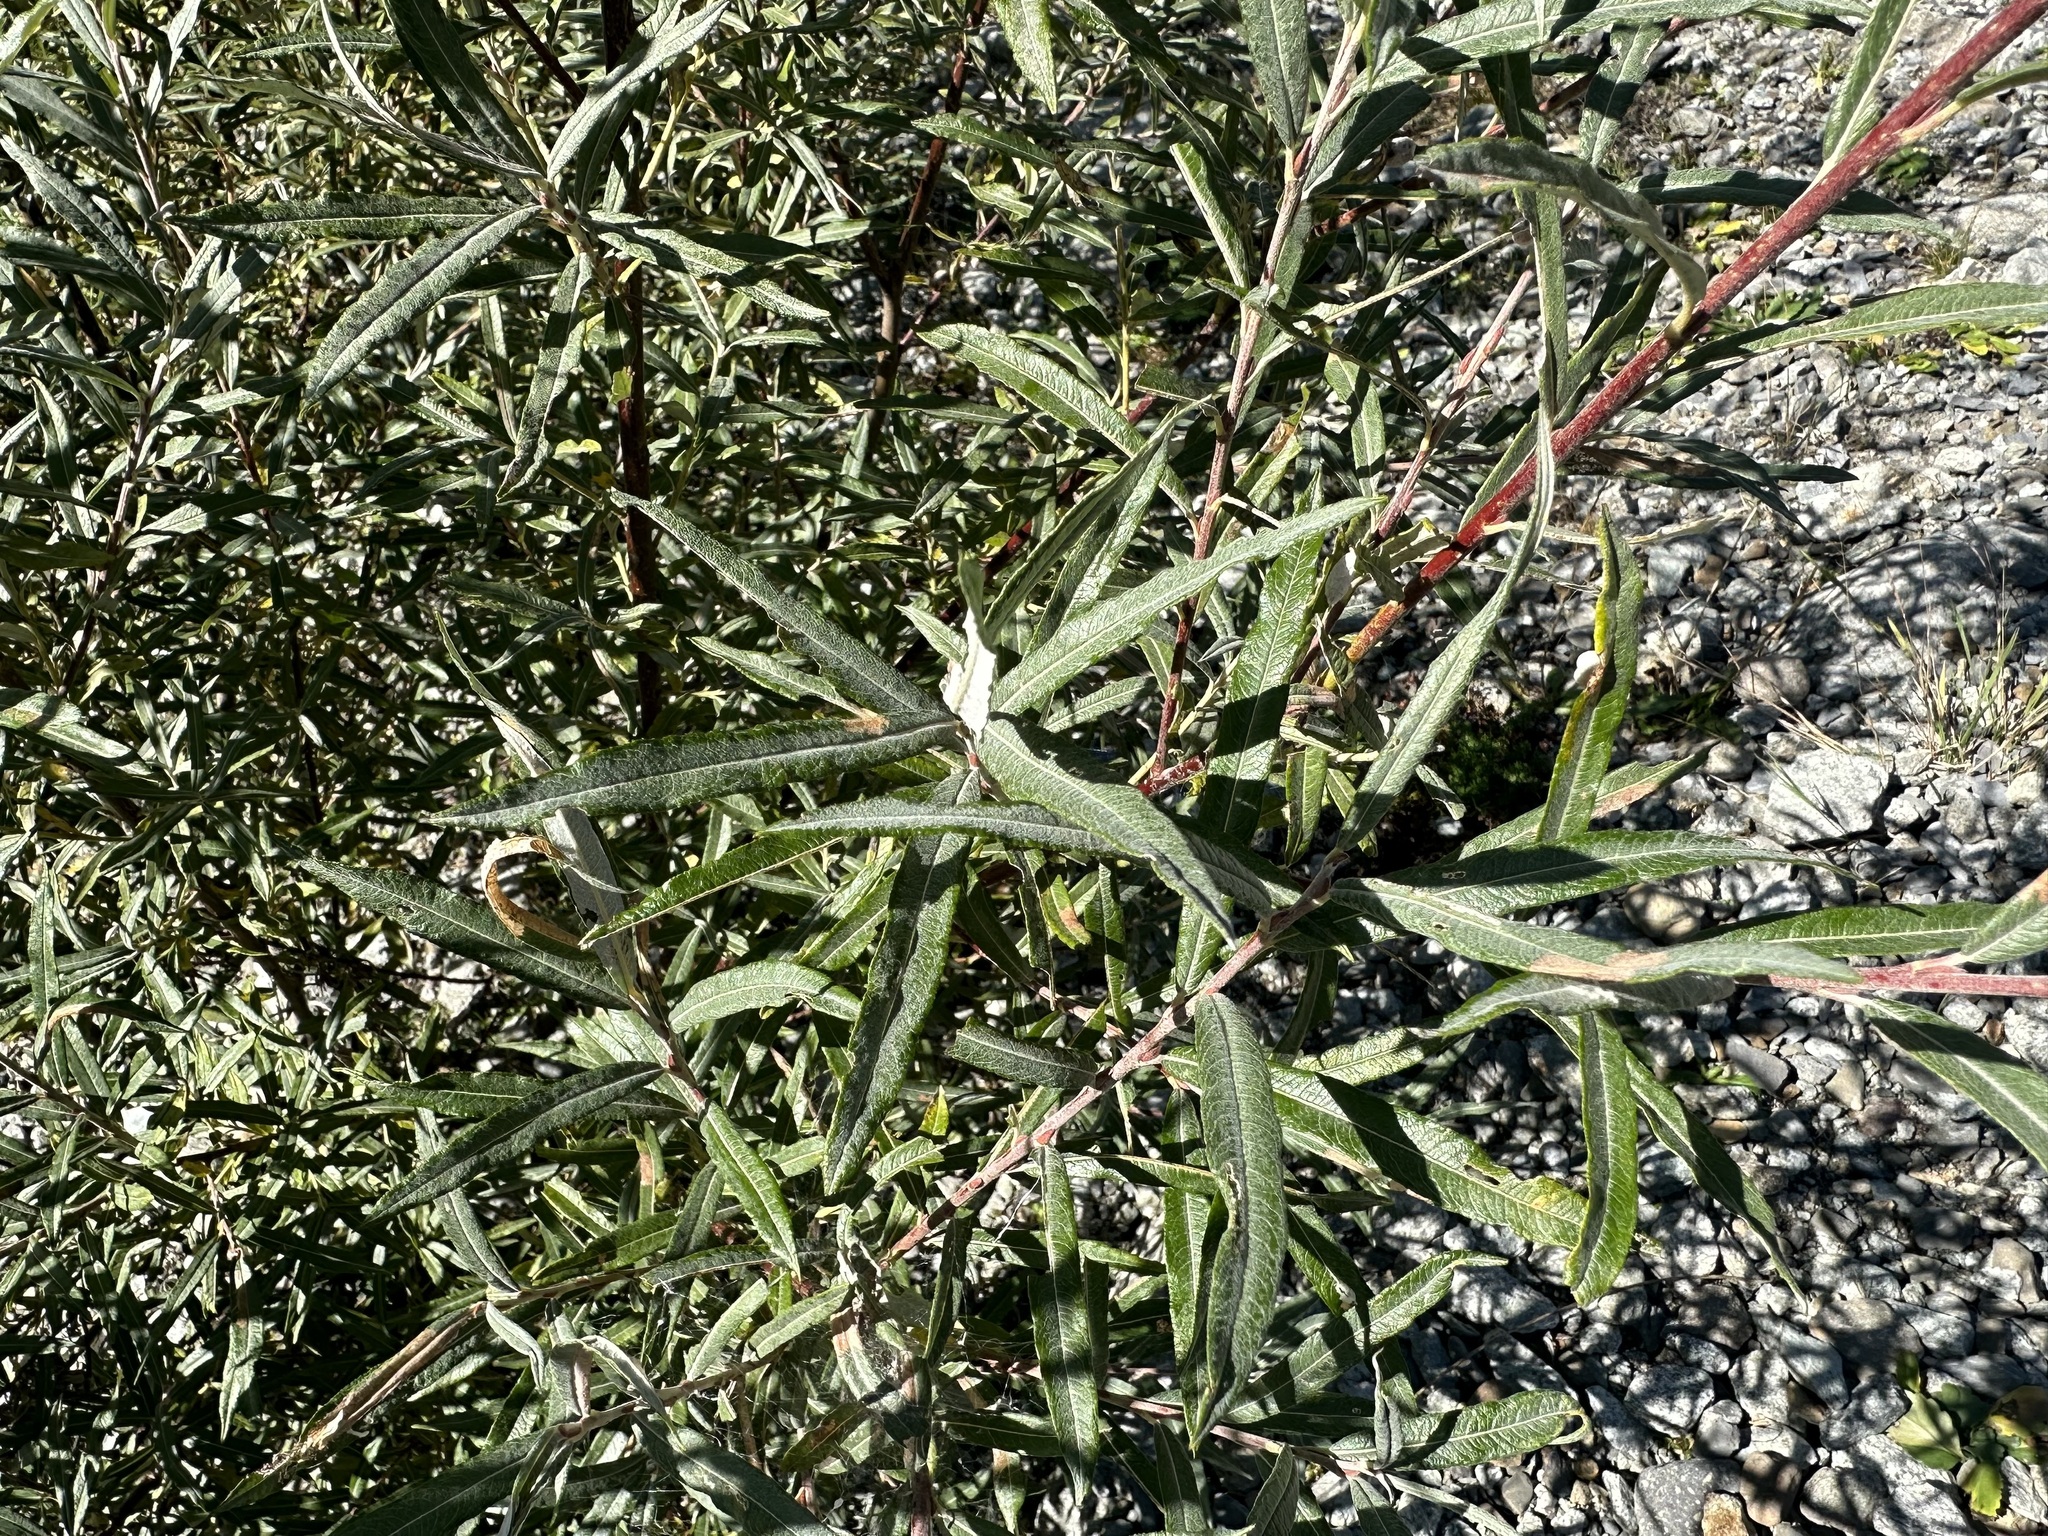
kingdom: Plantae
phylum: Tracheophyta
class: Magnoliopsida
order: Malpighiales
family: Salicaceae
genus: Salix
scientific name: Salix eleagnos
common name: Elaeagnus willow
